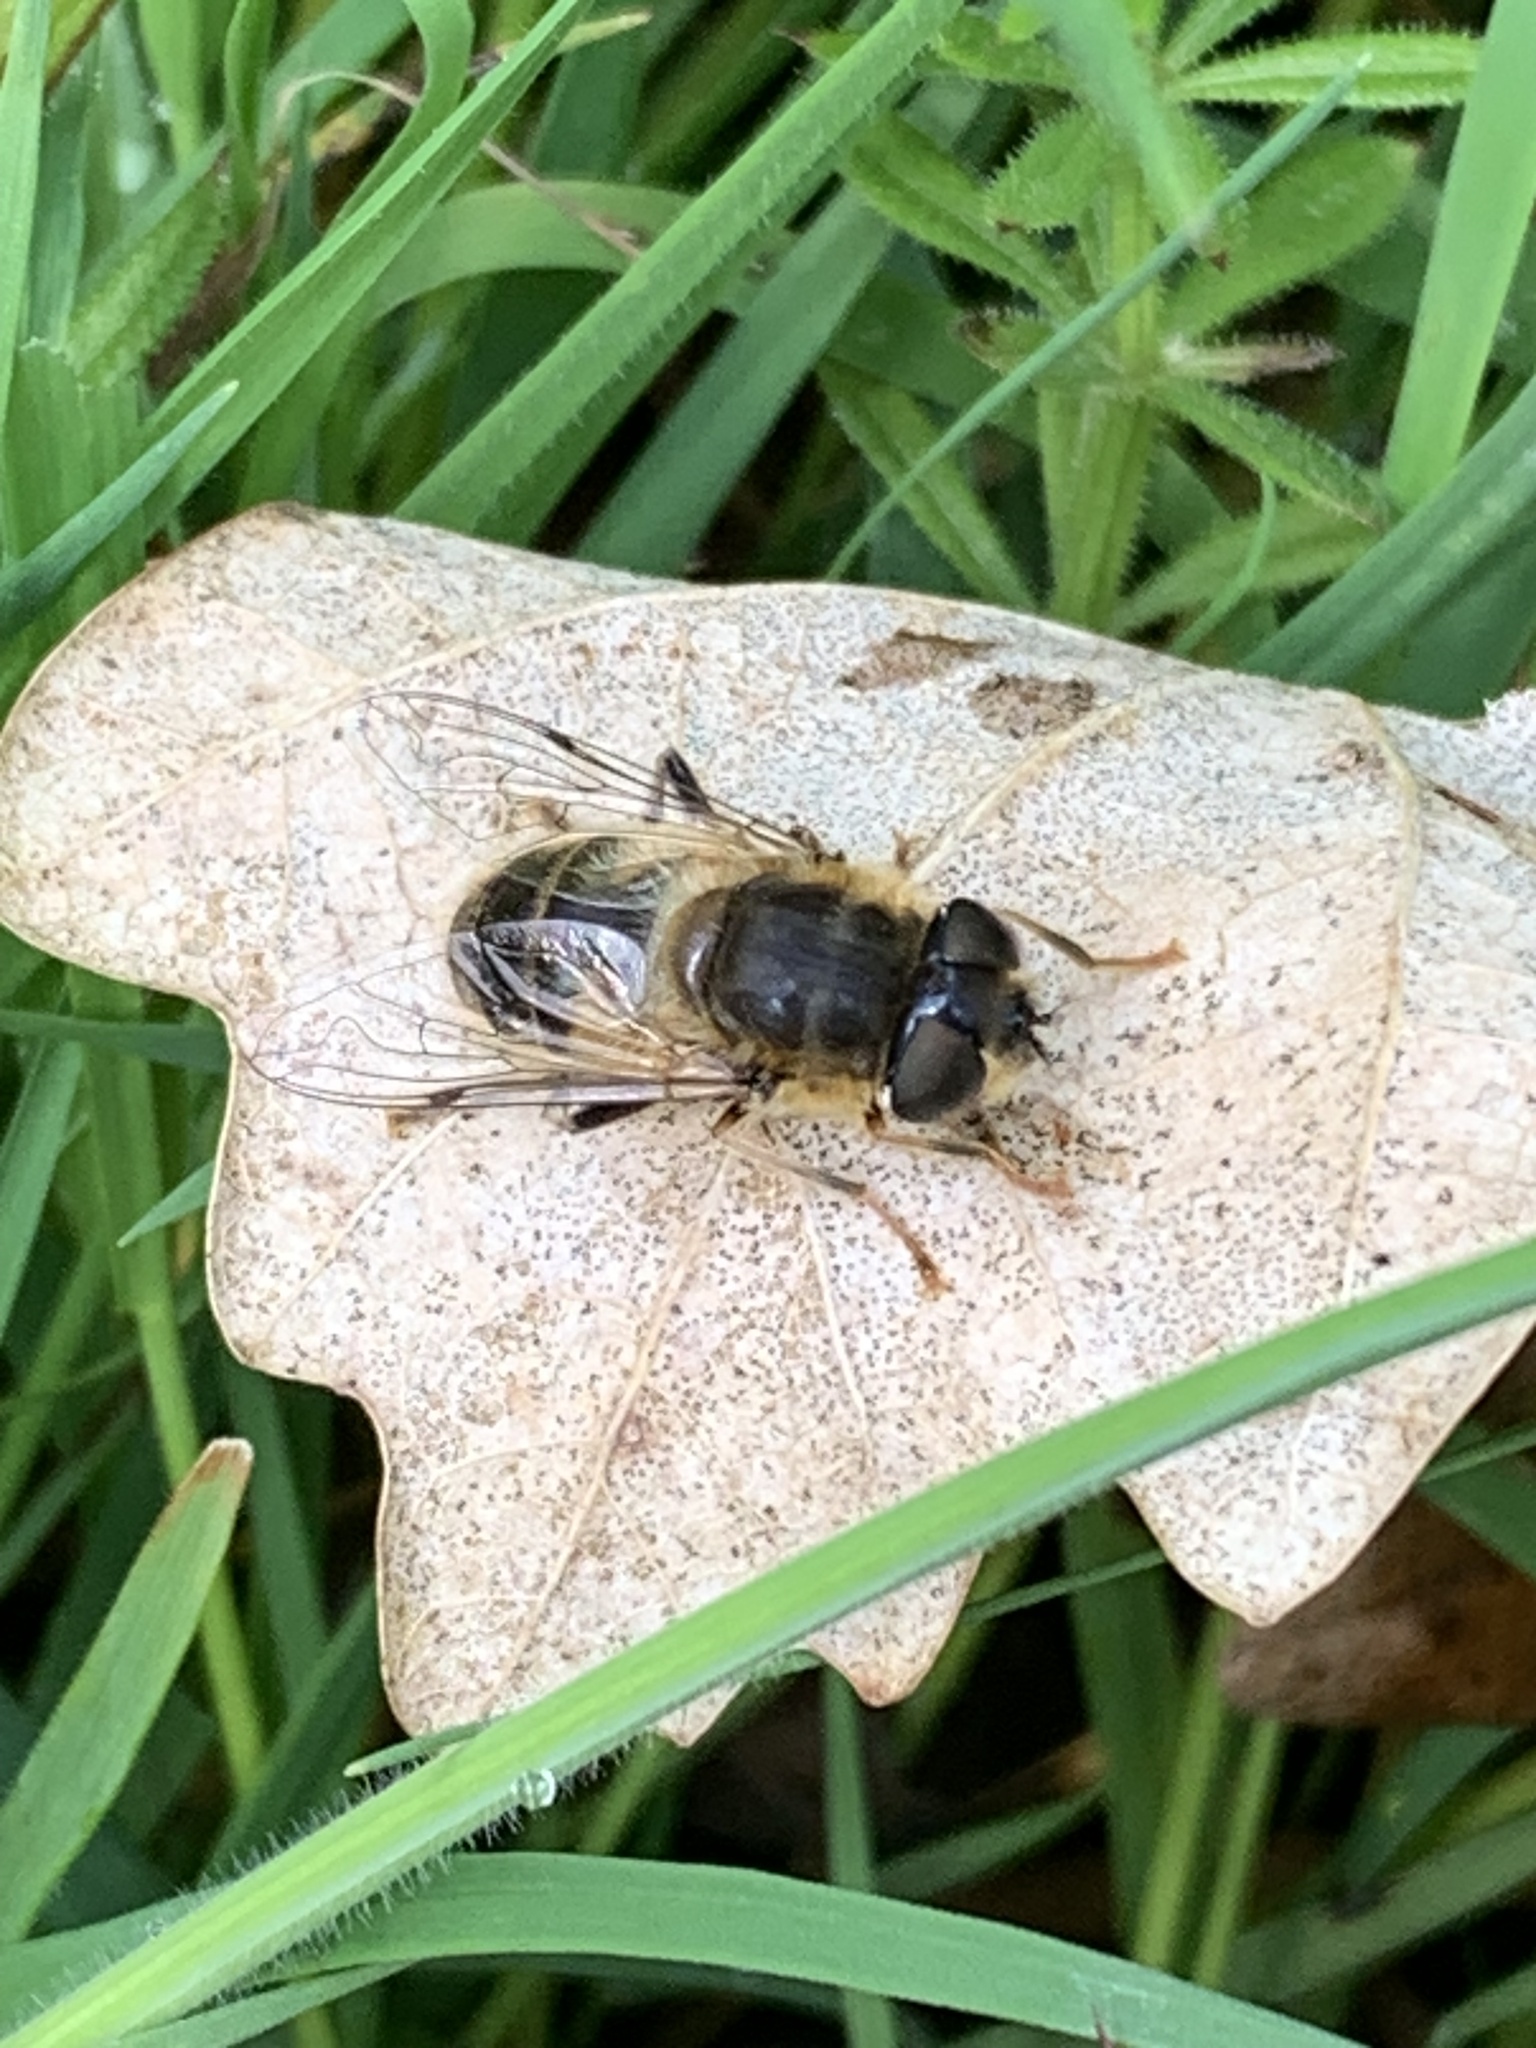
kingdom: Animalia
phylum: Arthropoda
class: Insecta
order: Diptera
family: Syrphidae
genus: Eristalis
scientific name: Eristalis pertinax
